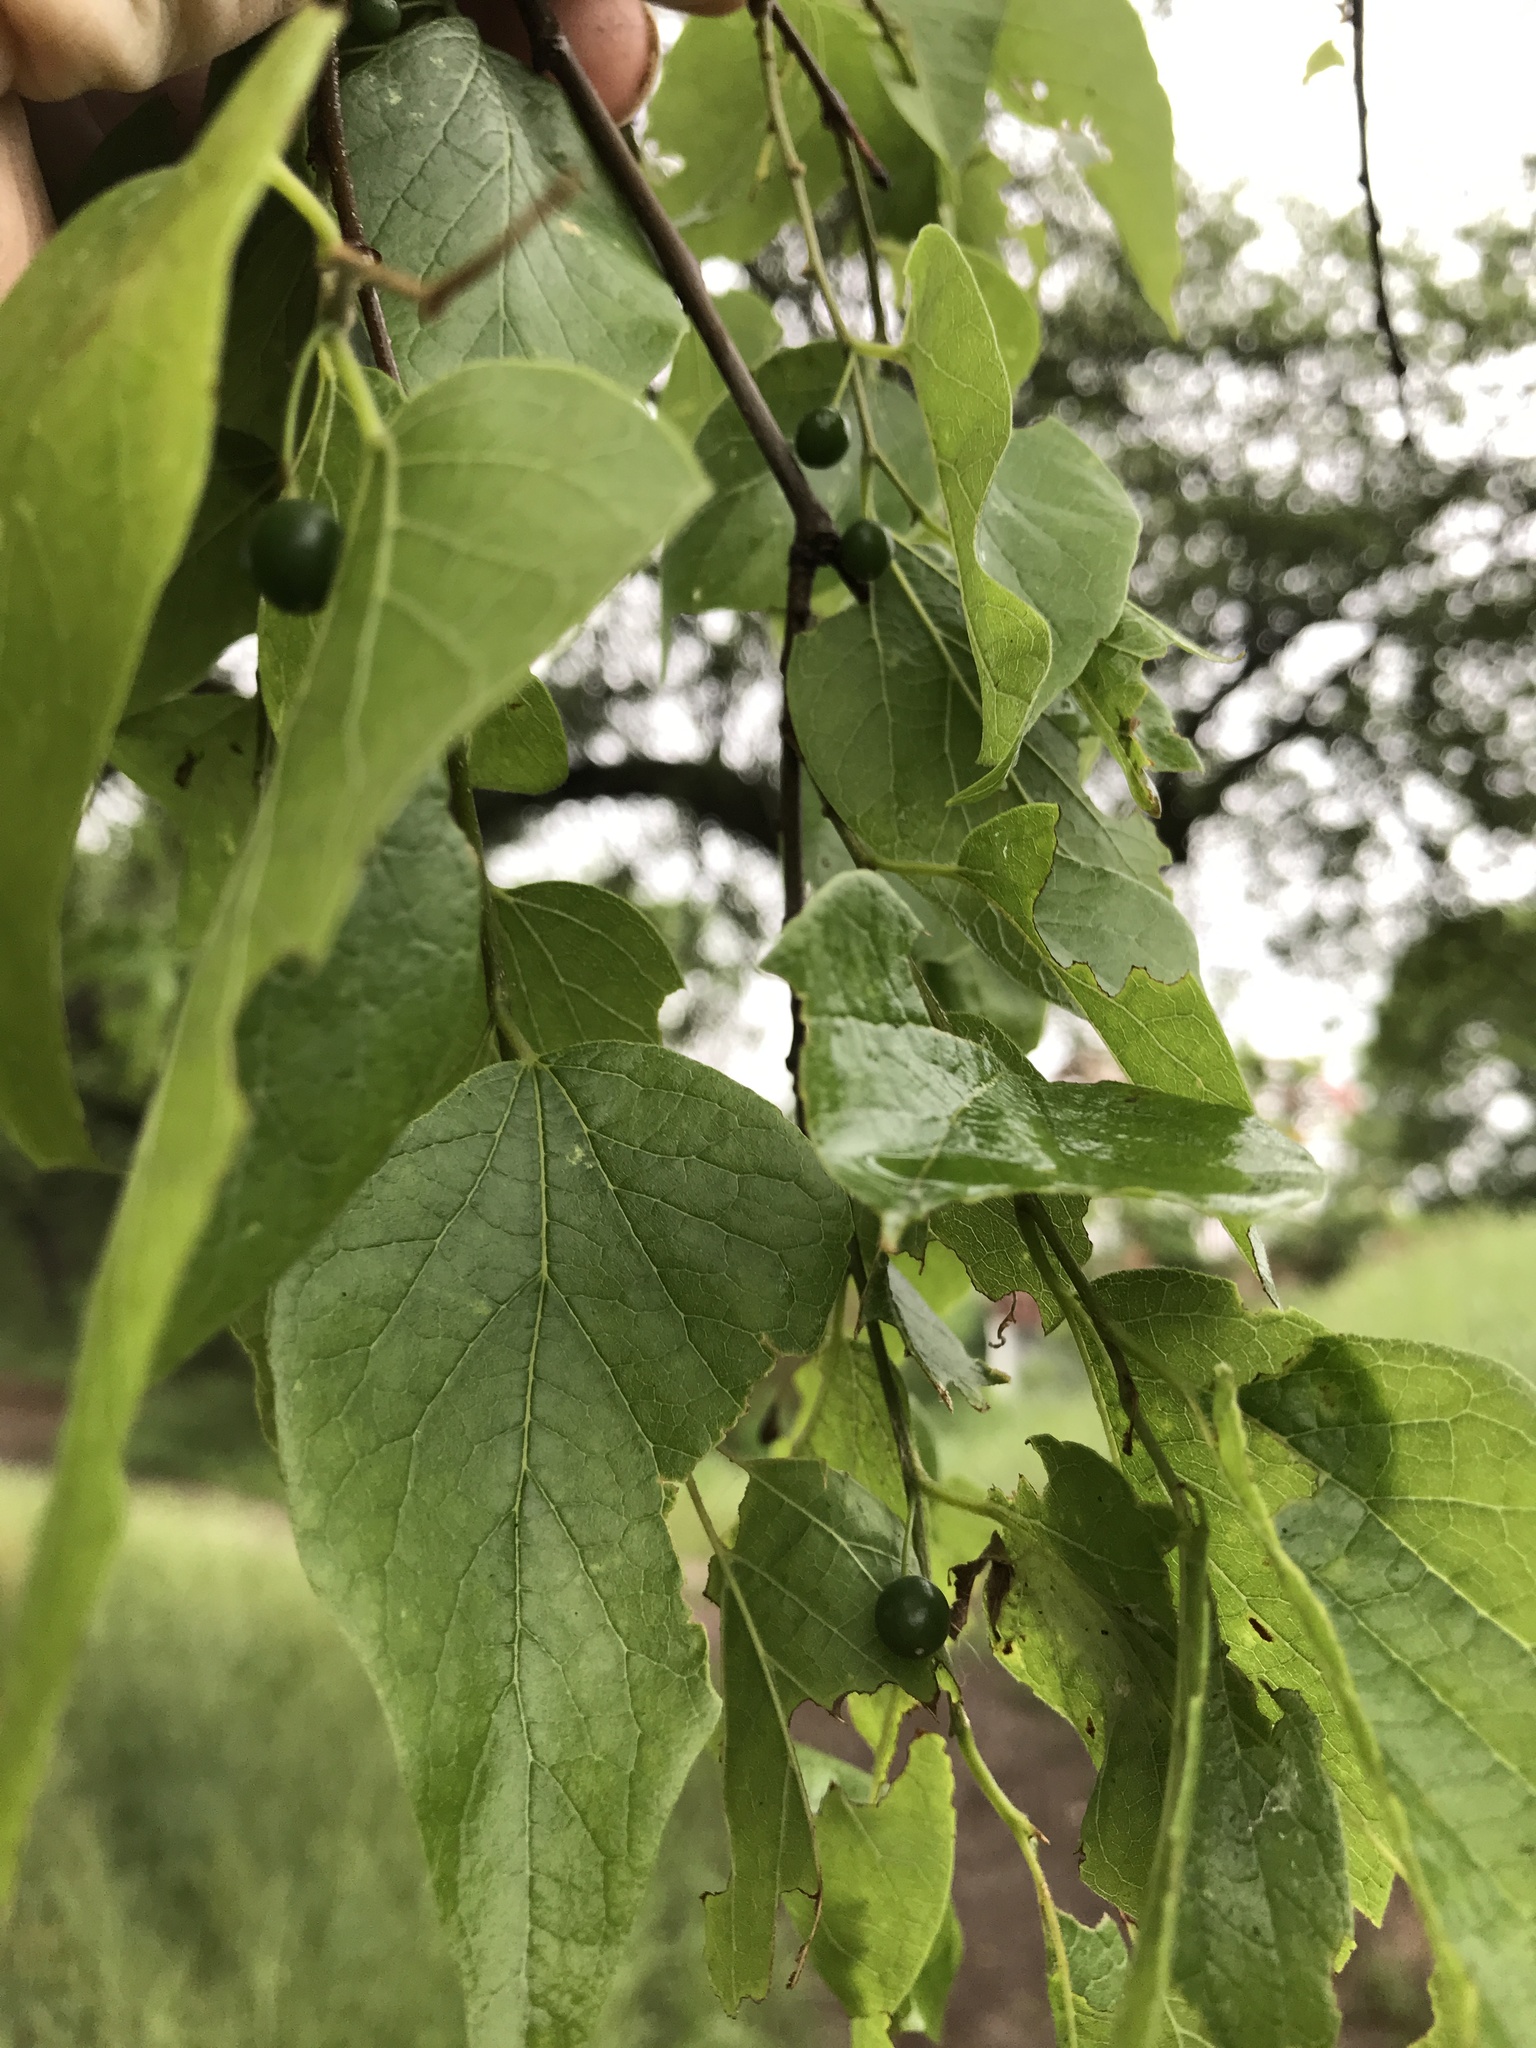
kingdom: Plantae
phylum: Tracheophyta
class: Magnoliopsida
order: Rosales
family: Cannabaceae
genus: Celtis
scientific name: Celtis laevigata
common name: Sugarberry
